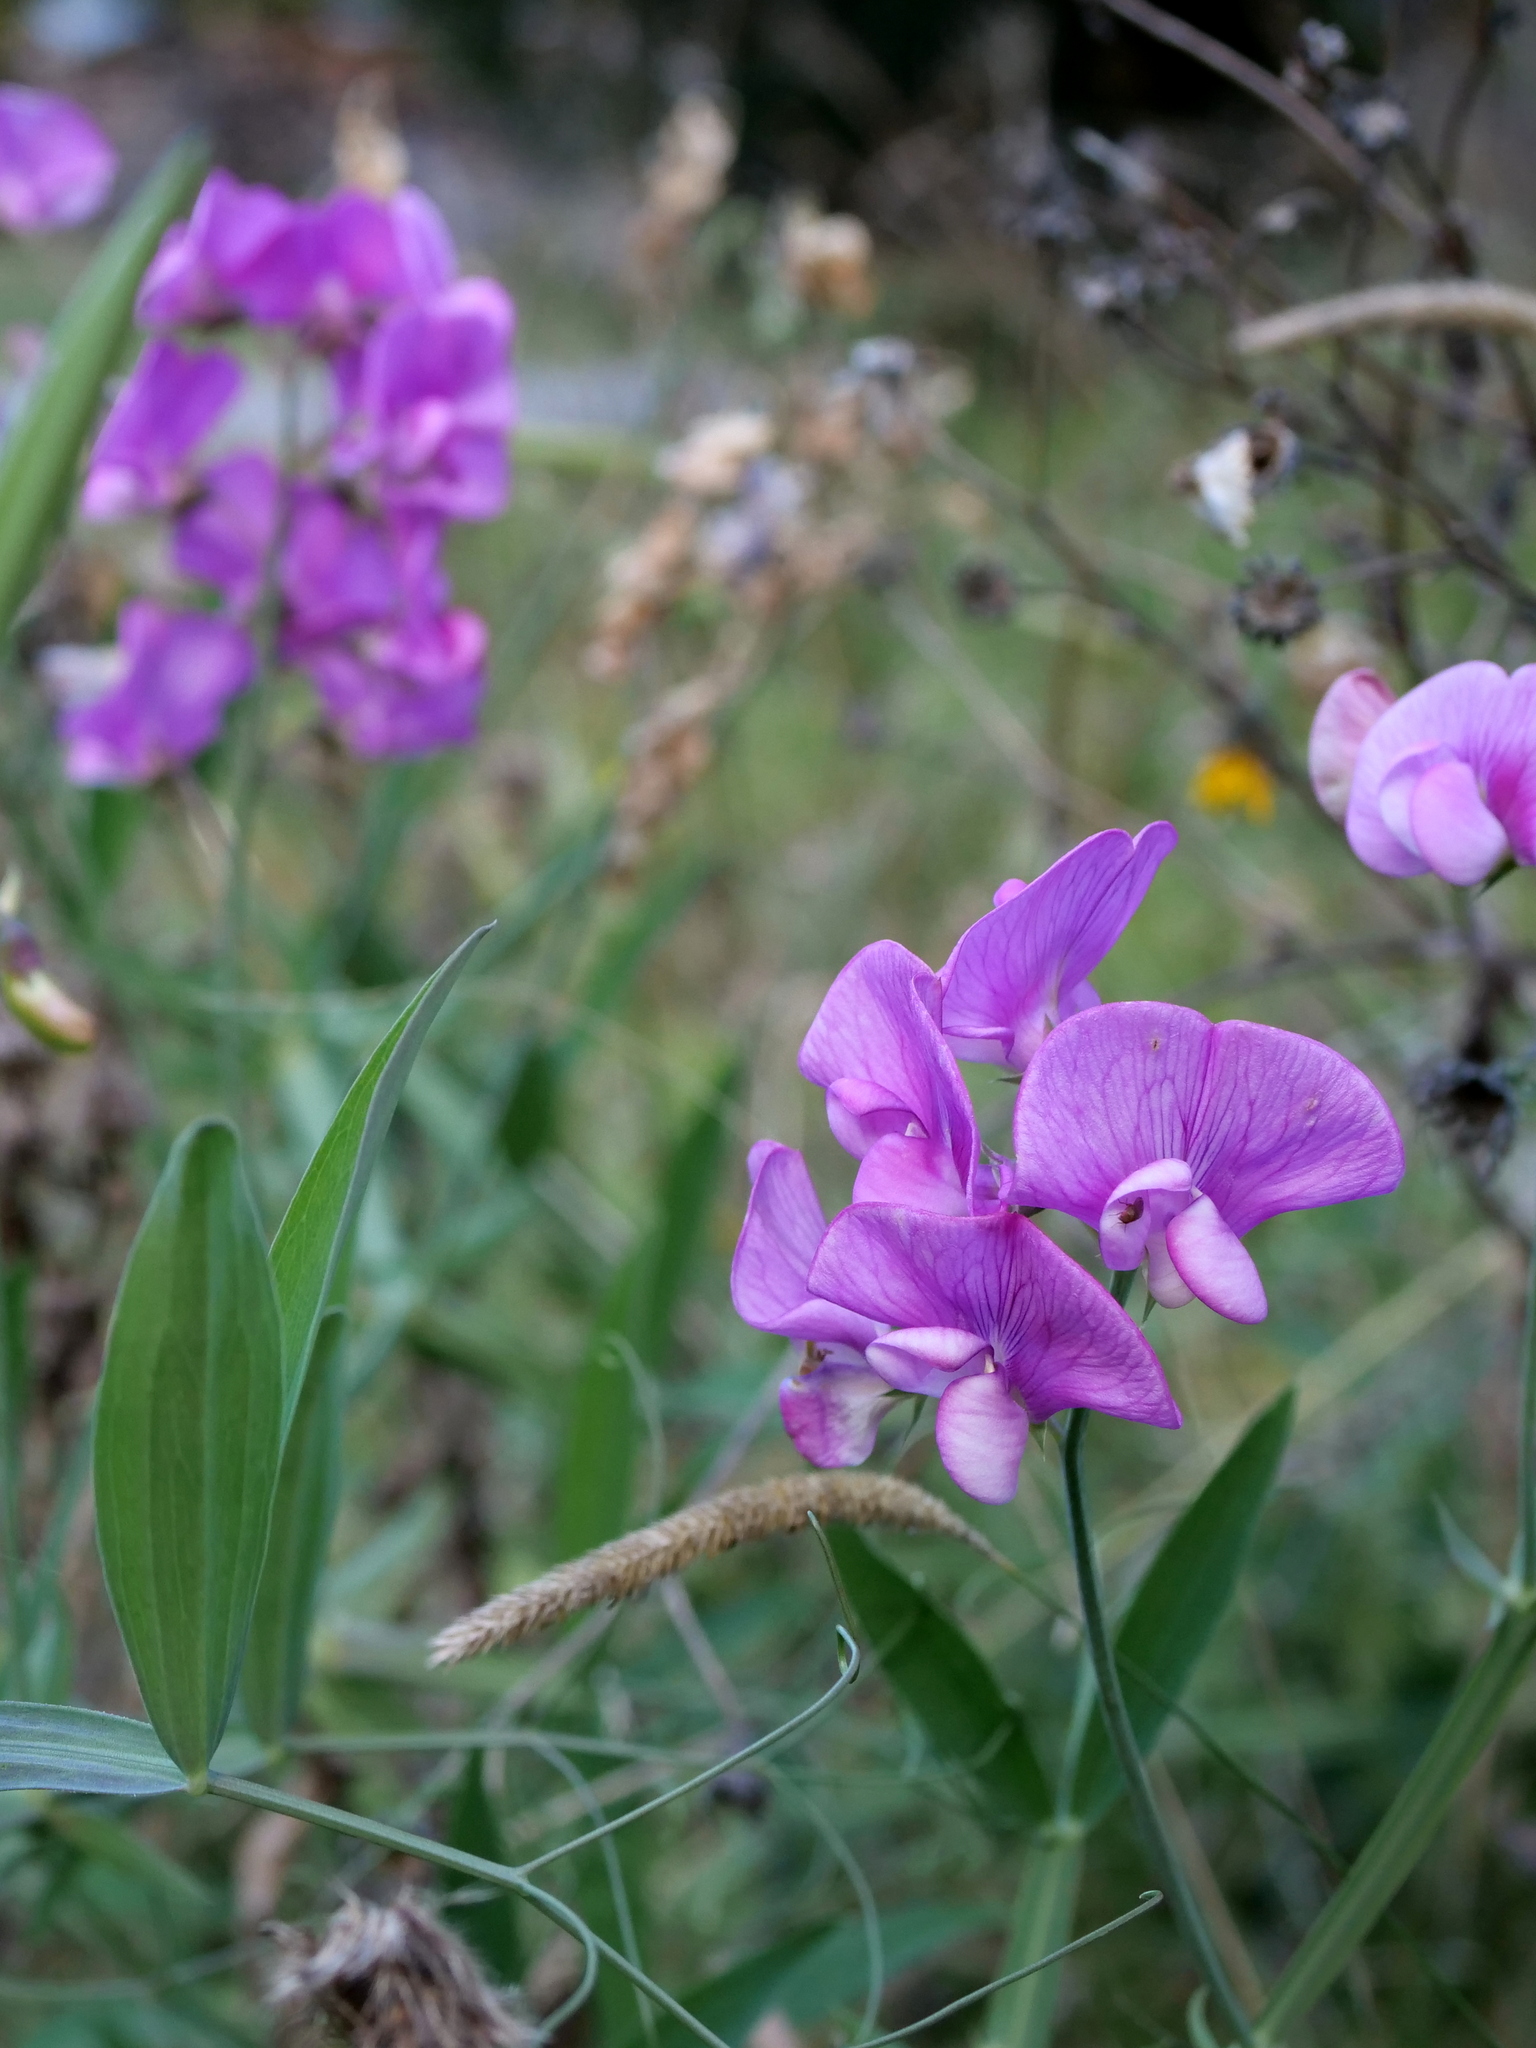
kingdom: Plantae
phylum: Tracheophyta
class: Magnoliopsida
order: Fabales
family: Fabaceae
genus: Lathyrus
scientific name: Lathyrus latifolius
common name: Perennial pea
